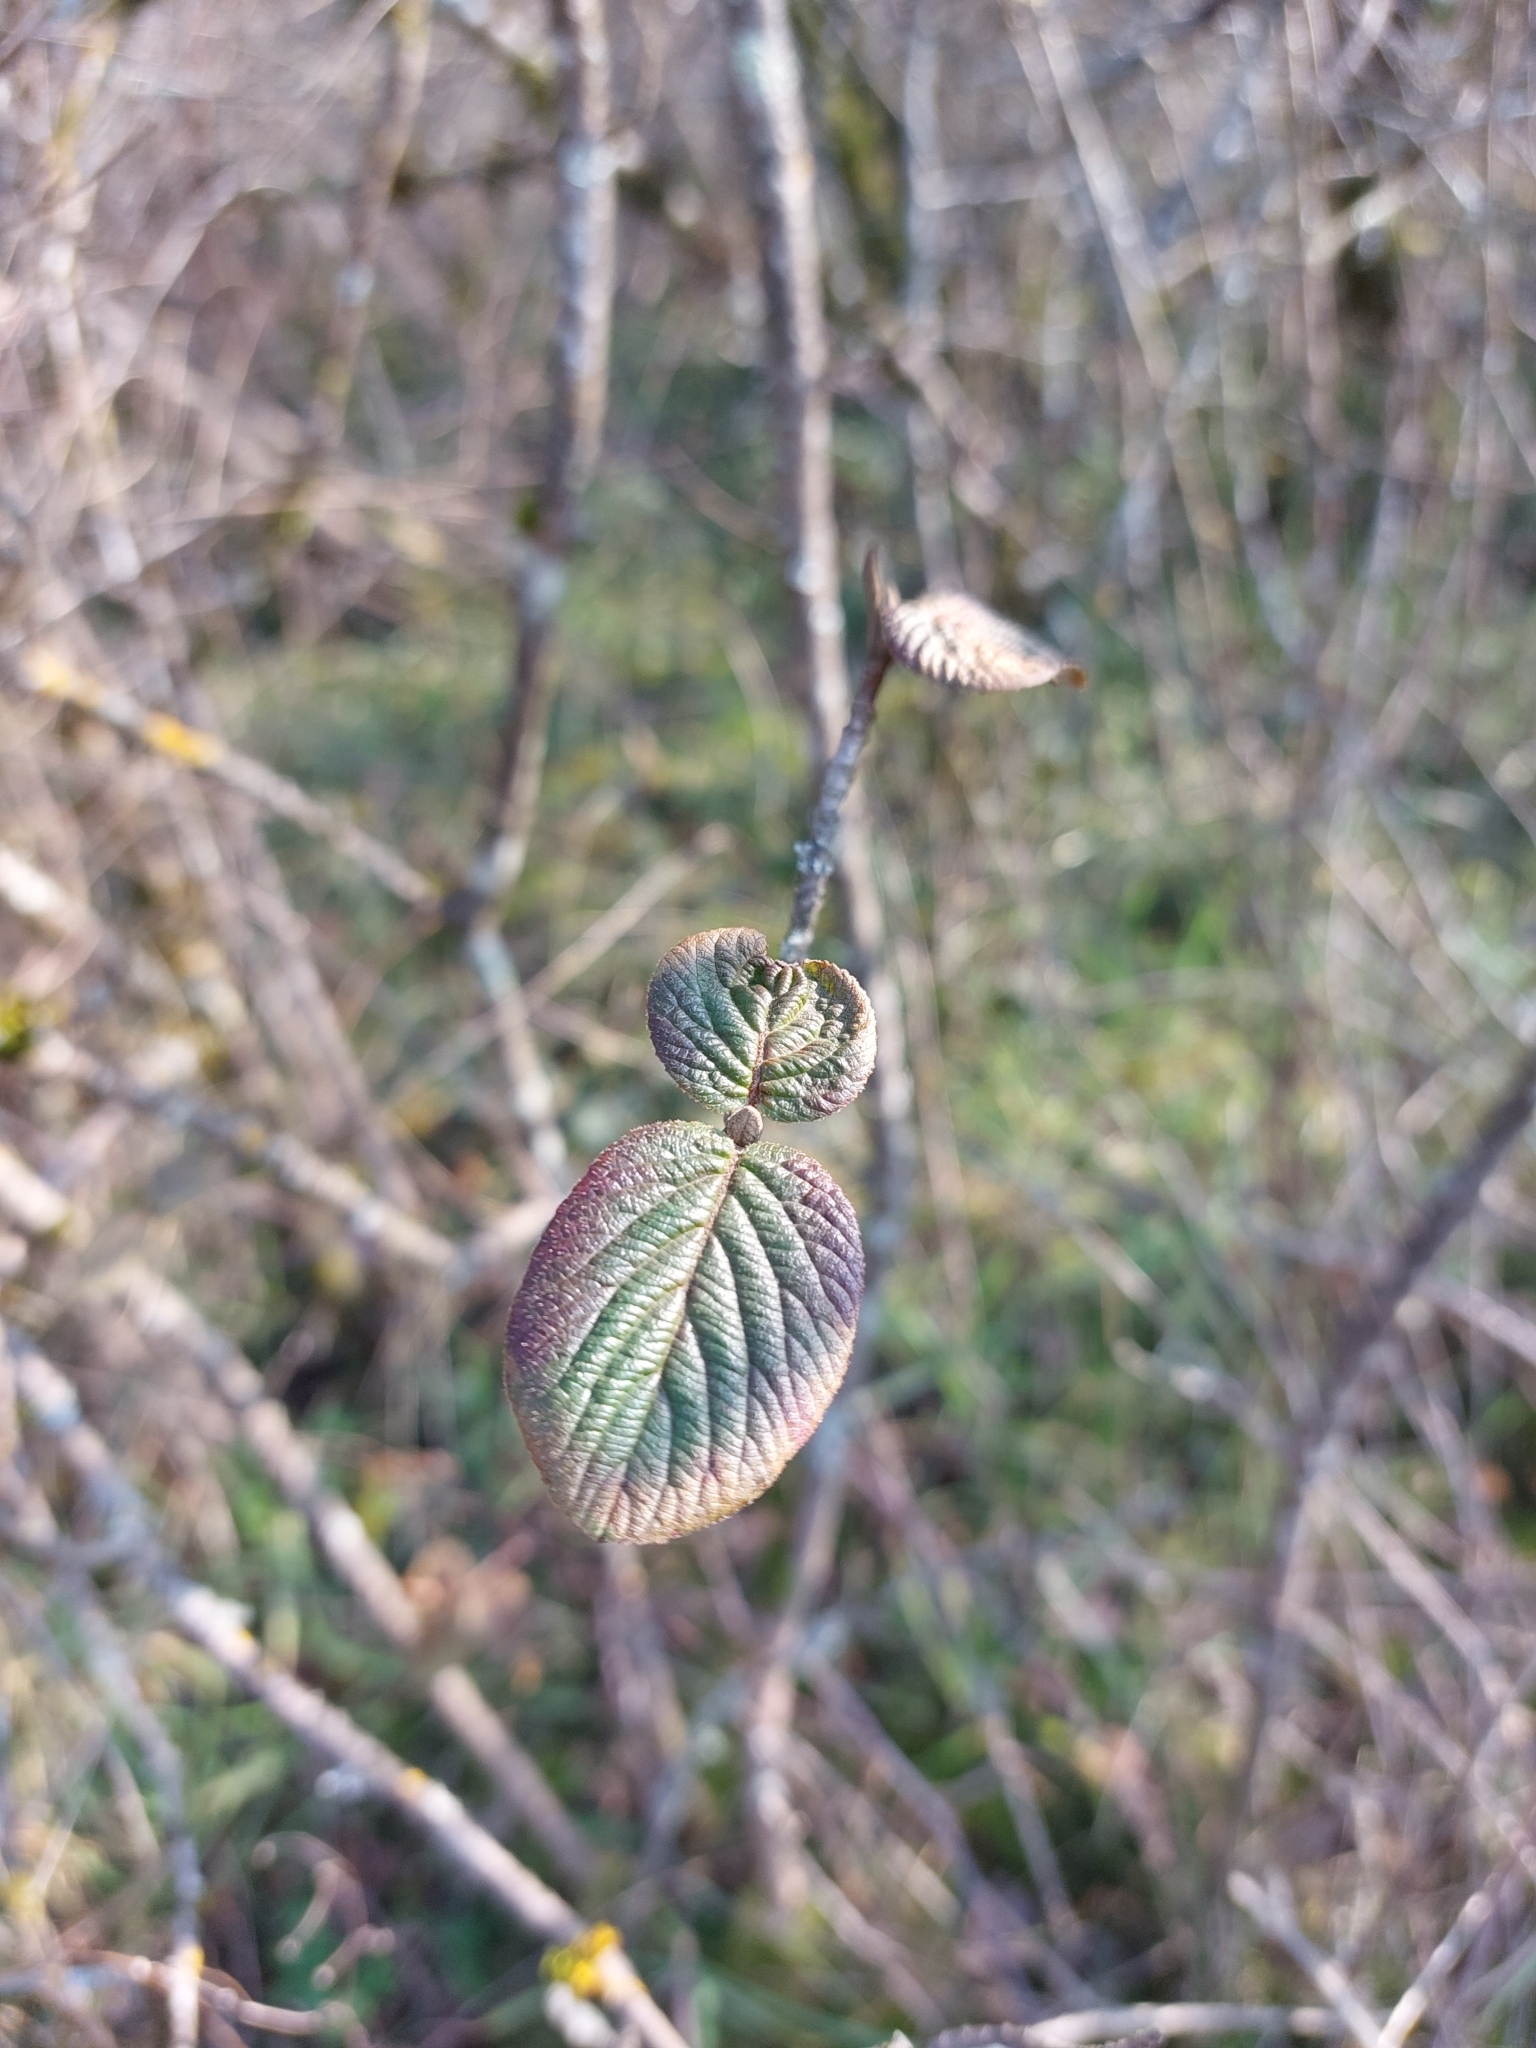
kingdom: Plantae
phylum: Tracheophyta
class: Magnoliopsida
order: Dipsacales
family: Viburnaceae
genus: Viburnum
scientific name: Viburnum lantana
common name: Wayfaring tree
